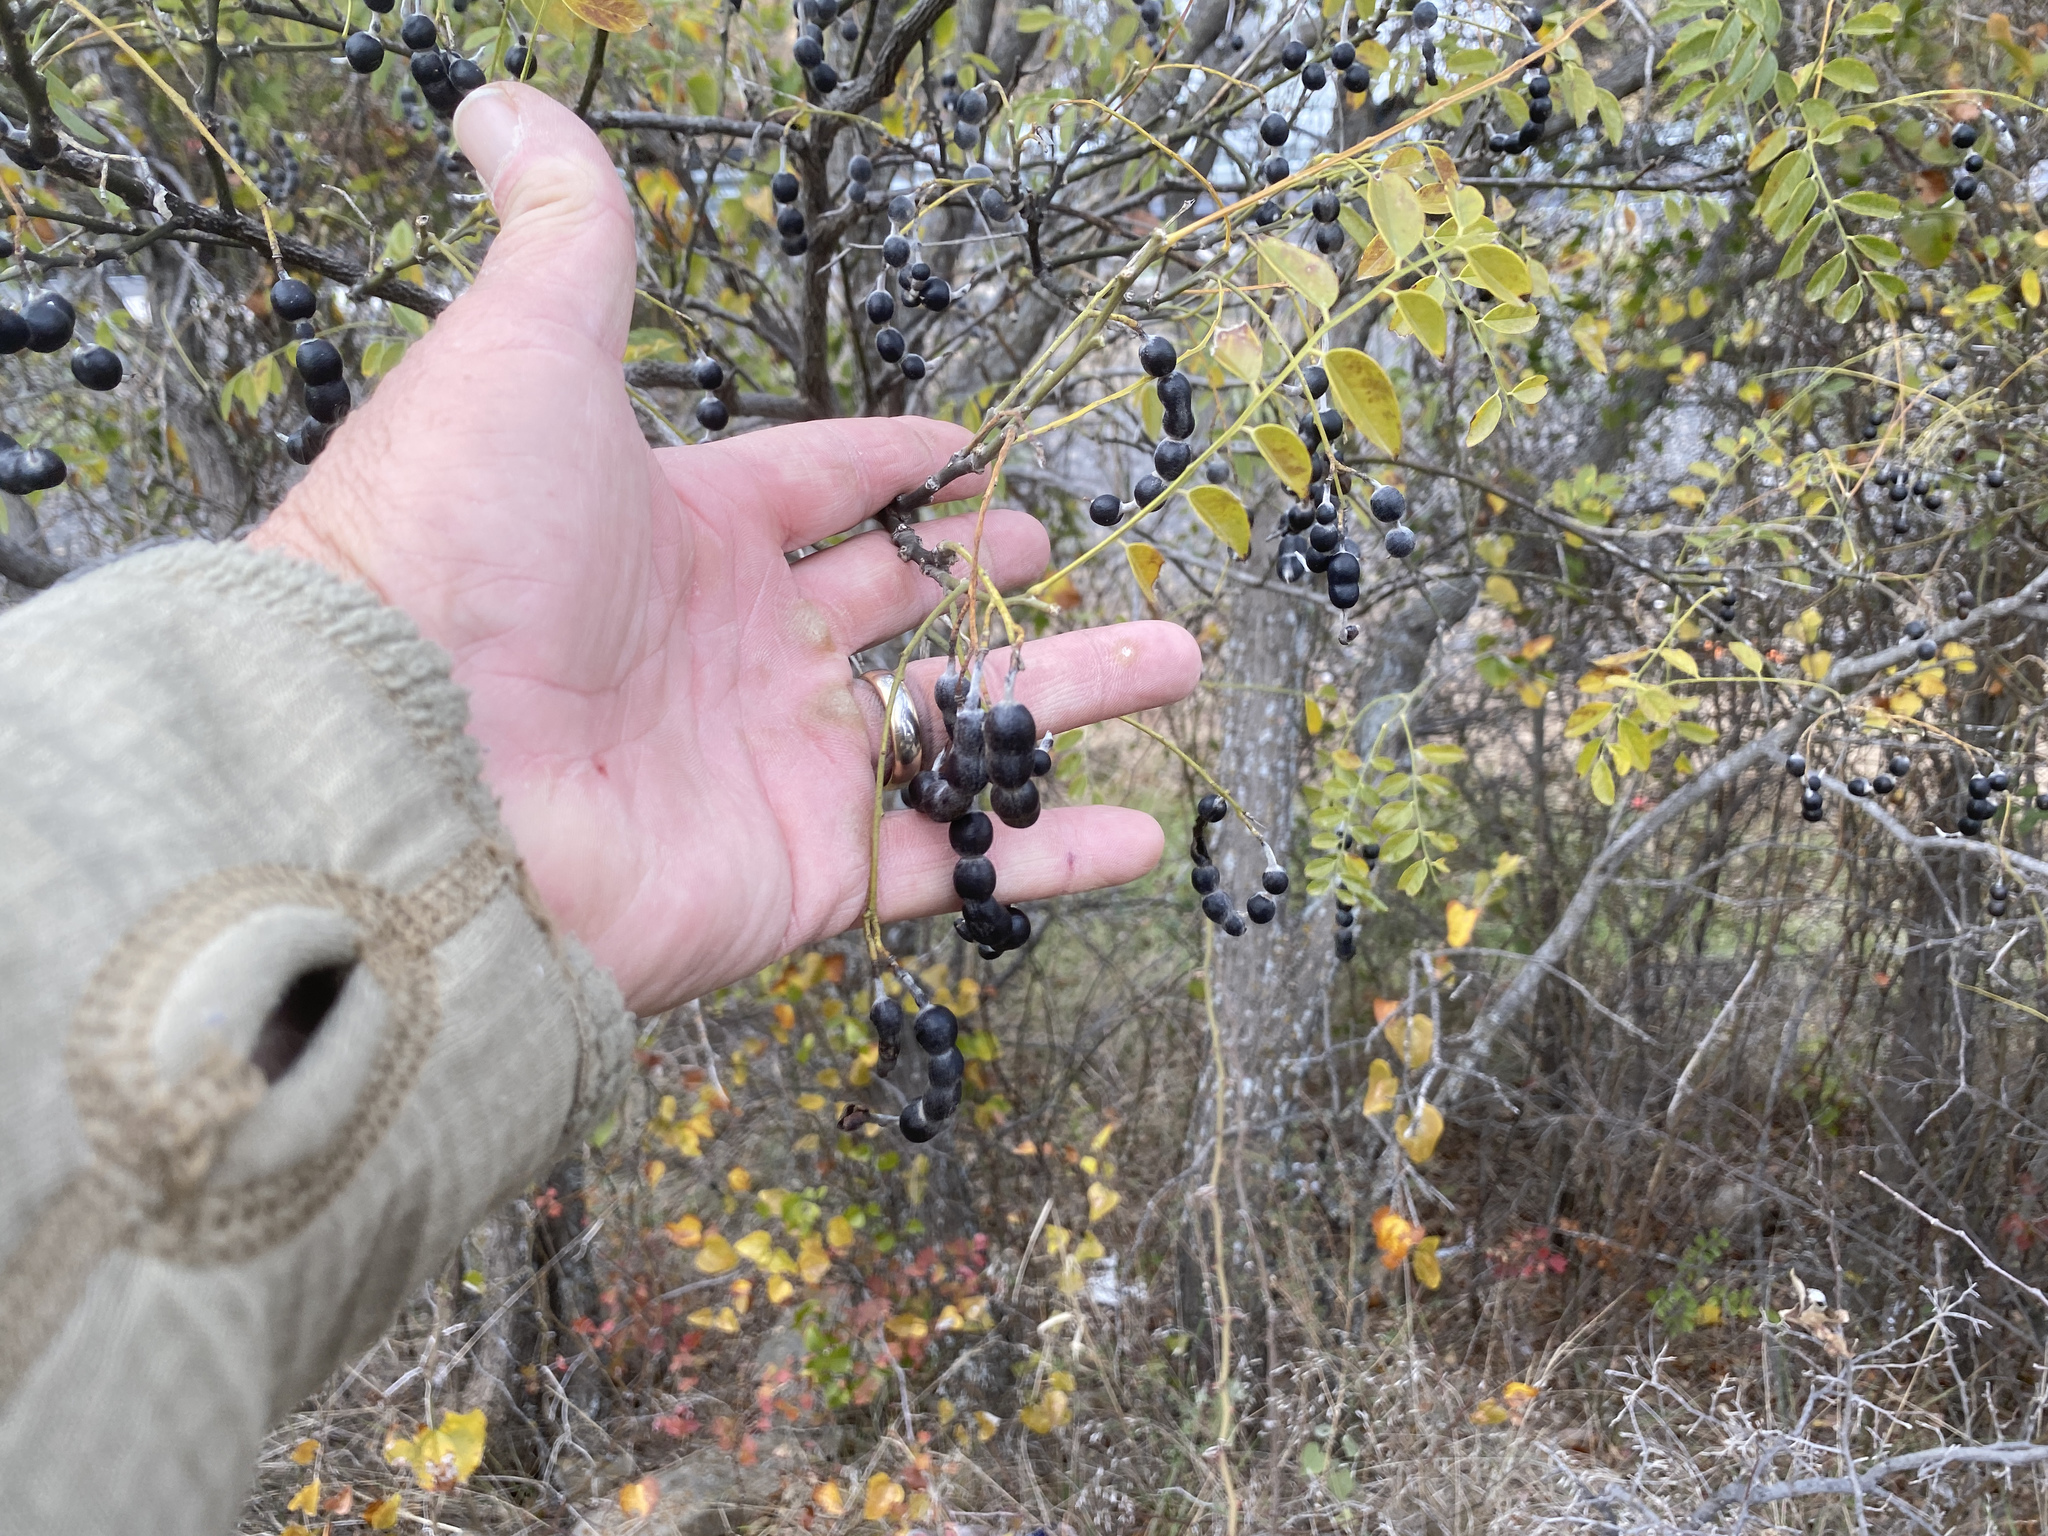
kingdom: Plantae
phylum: Tracheophyta
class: Magnoliopsida
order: Fabales
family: Fabaceae
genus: Styphnolobium
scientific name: Styphnolobium affine
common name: Texas sophora
